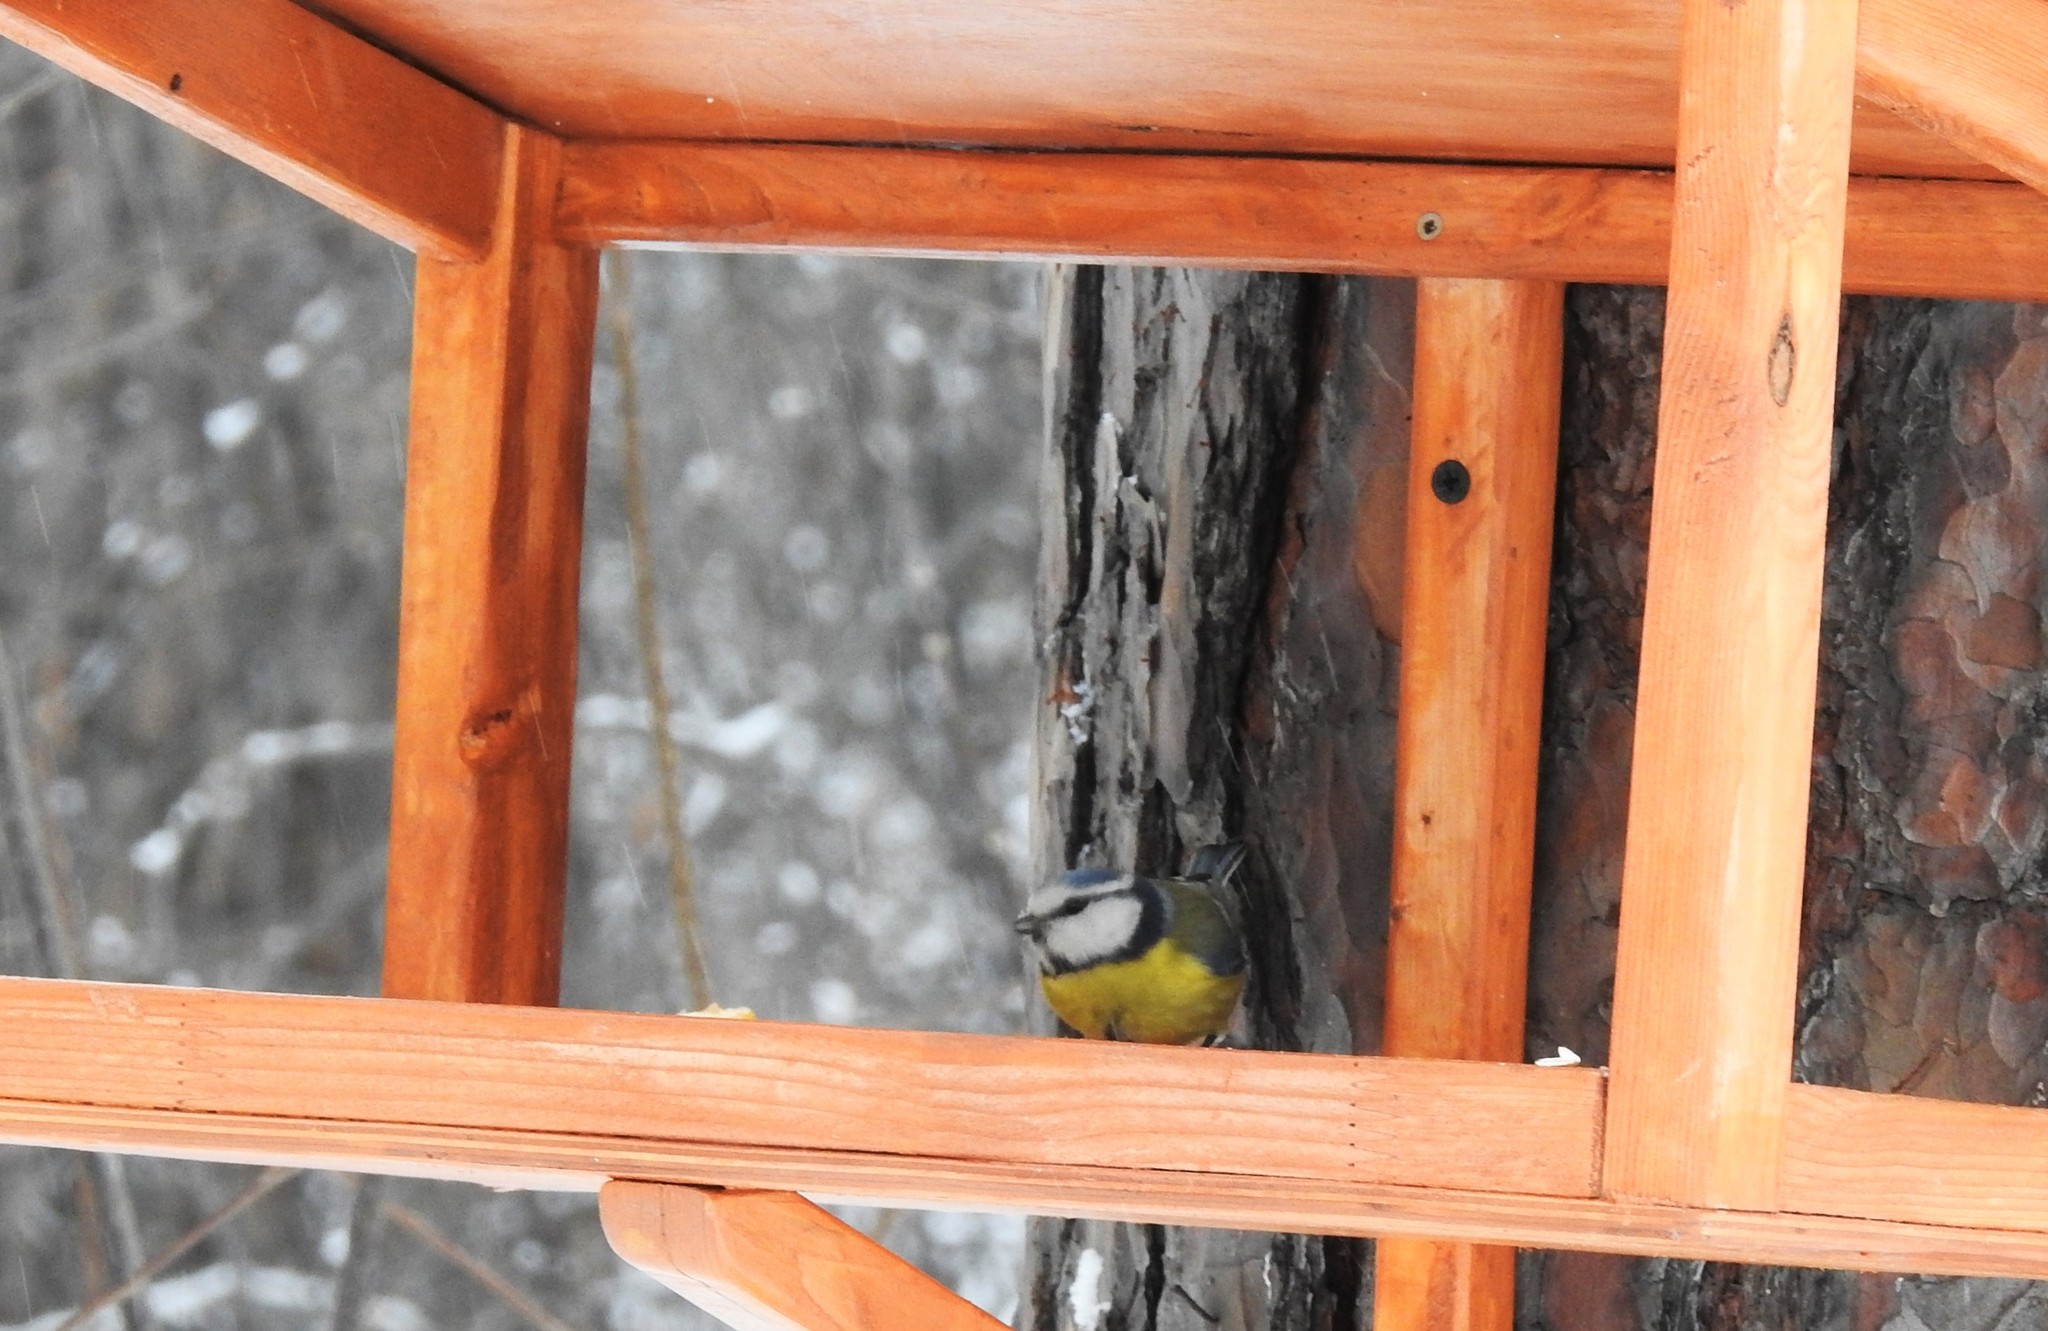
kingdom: Animalia
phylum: Chordata
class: Aves
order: Passeriformes
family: Paridae
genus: Cyanistes
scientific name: Cyanistes caeruleus
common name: Eurasian blue tit
